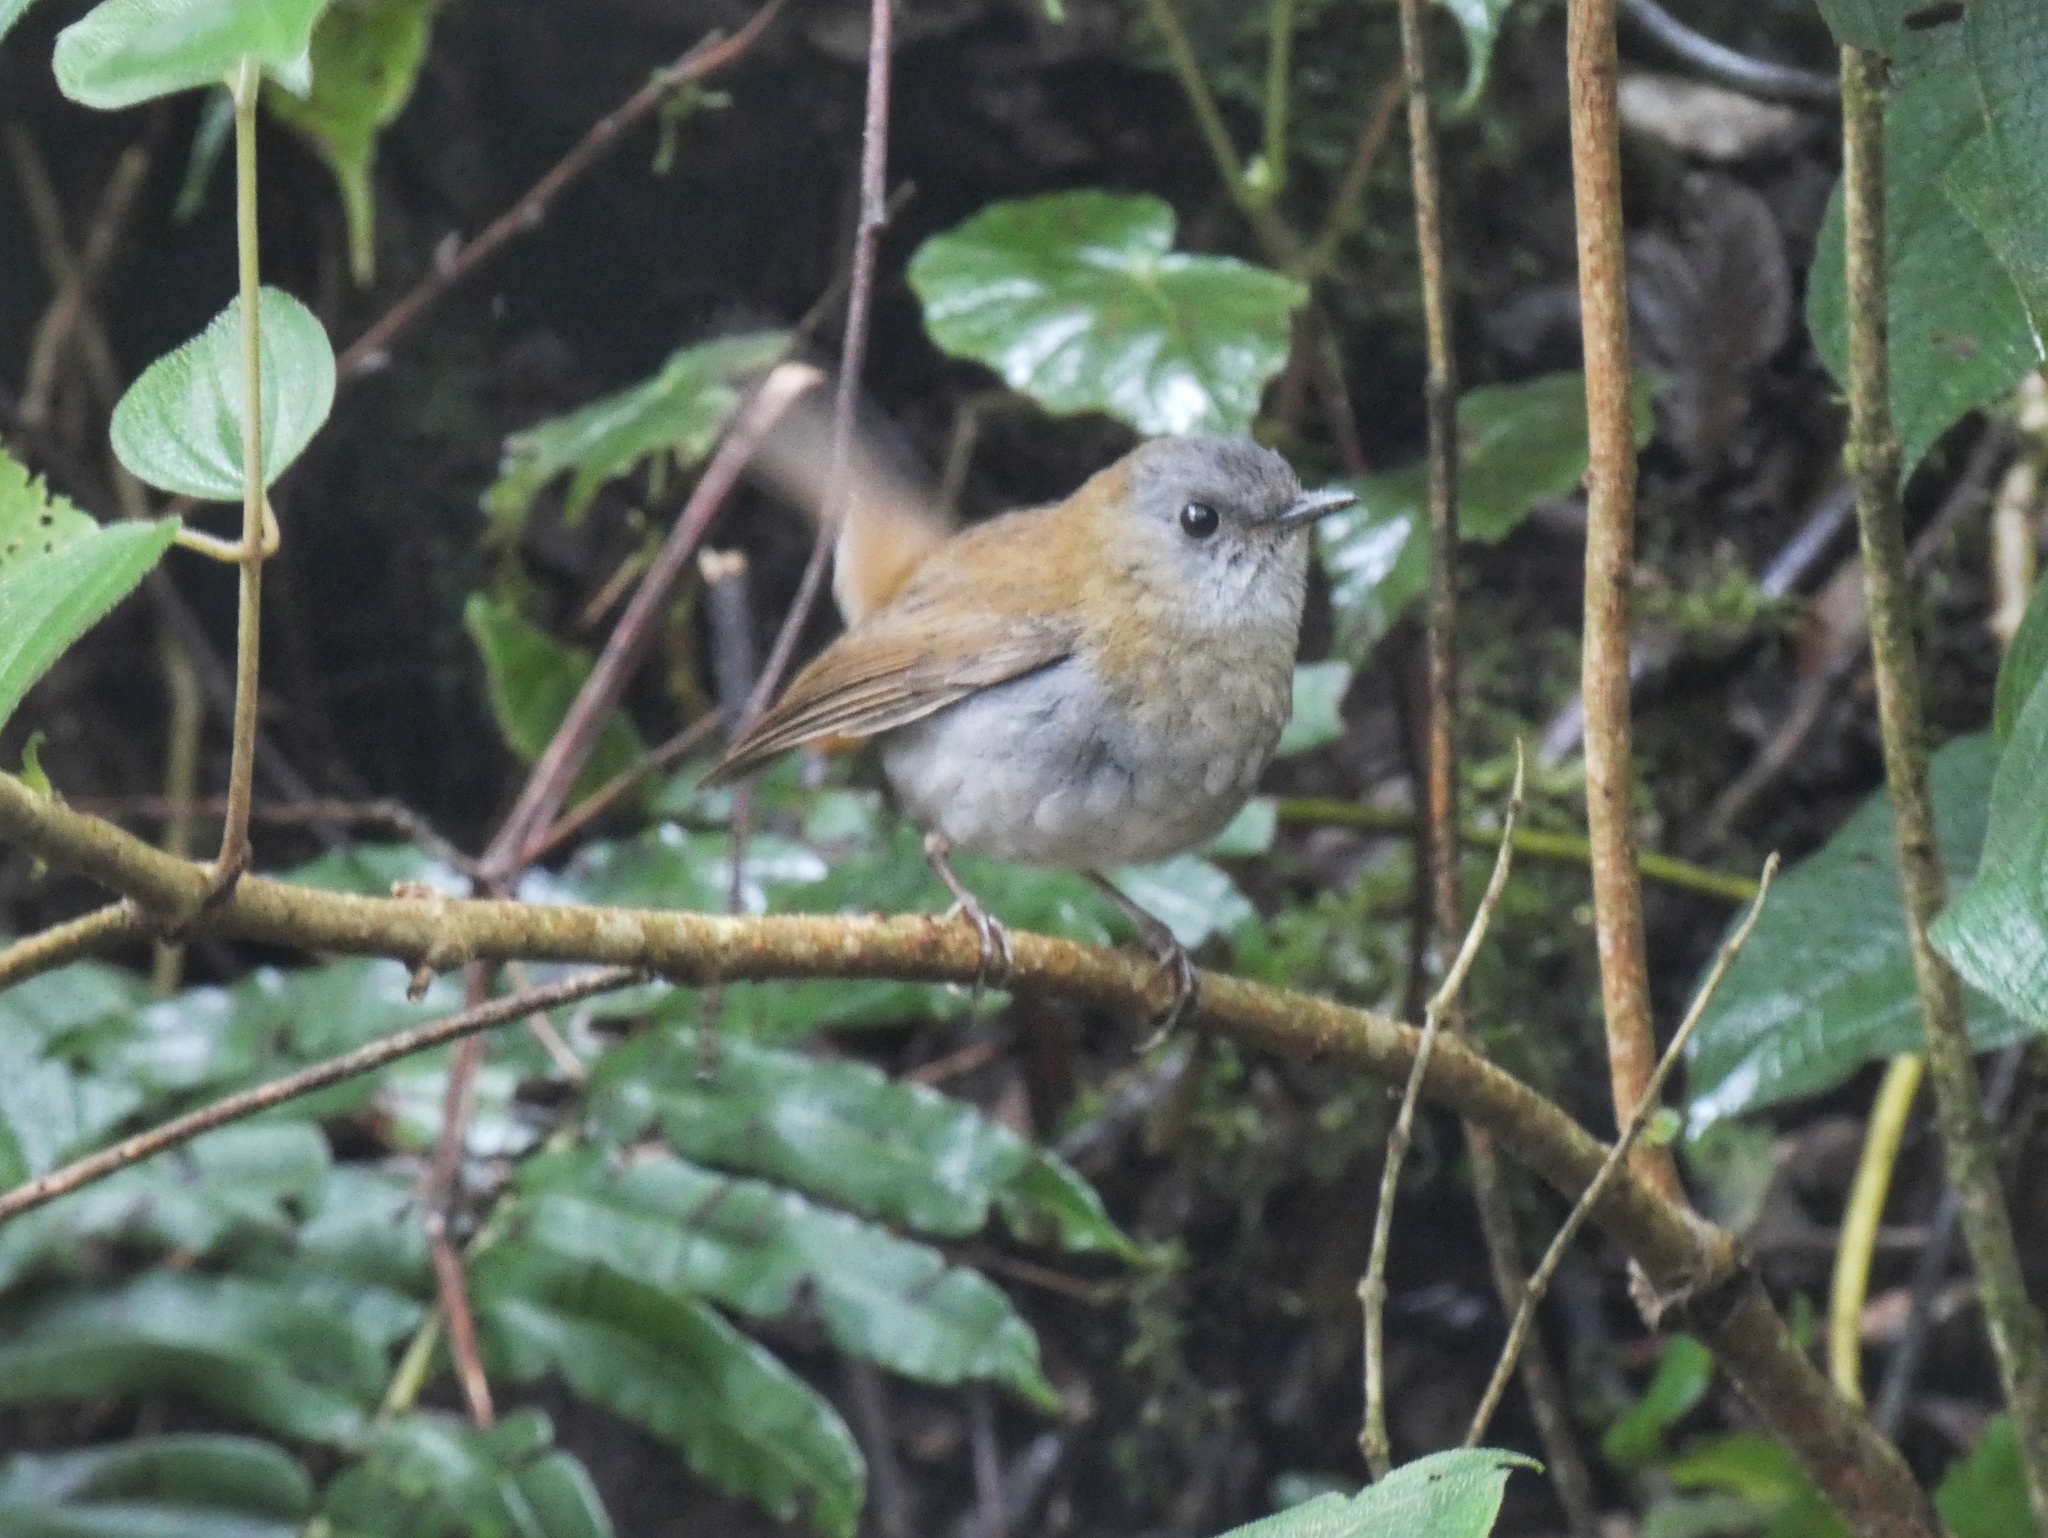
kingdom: Animalia
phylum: Chordata
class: Aves
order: Passeriformes
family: Turdidae
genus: Catharus
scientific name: Catharus gracilirostris
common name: Black-billed nightingale-thrush
